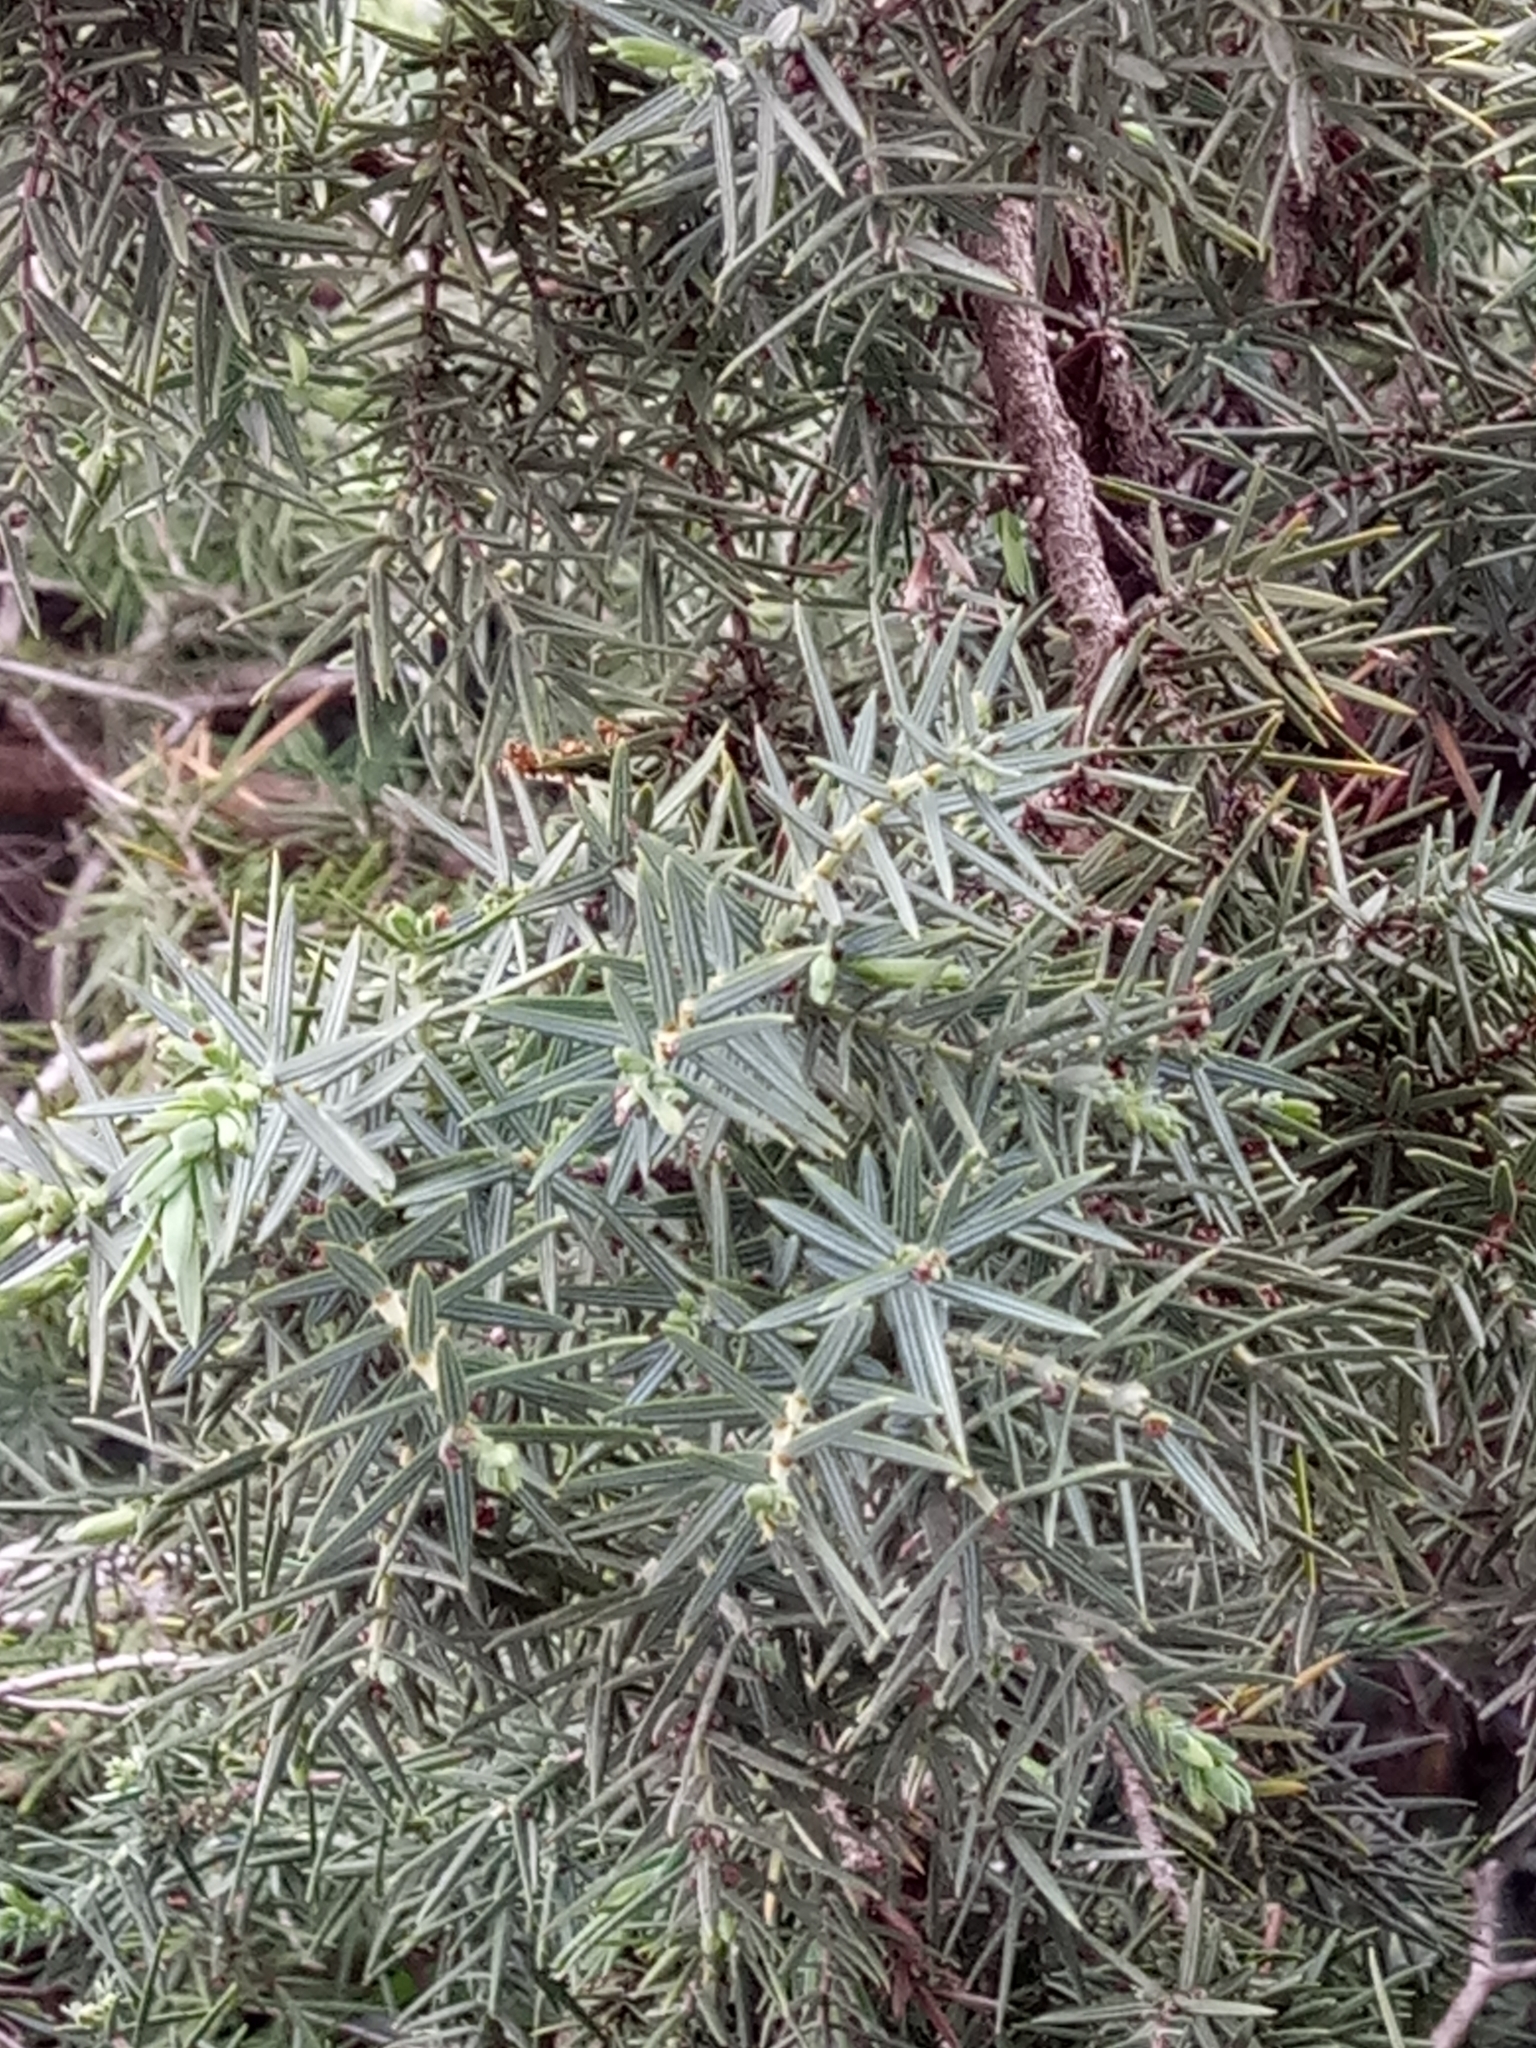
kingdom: Plantae
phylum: Tracheophyta
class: Pinopsida
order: Pinales
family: Cupressaceae
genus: Juniperus
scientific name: Juniperus oxycedrus
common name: Prickly juniper
